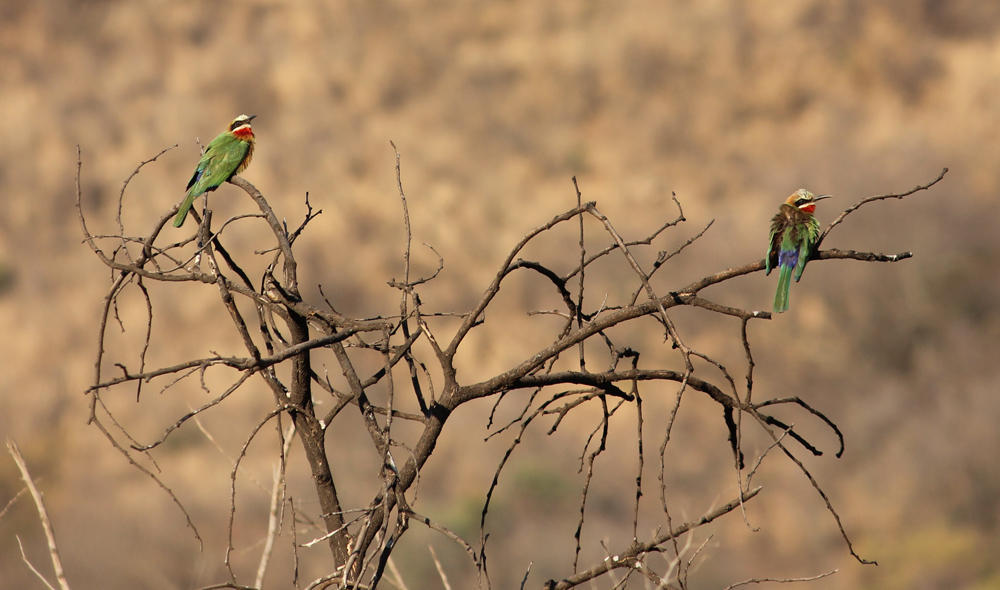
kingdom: Animalia
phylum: Chordata
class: Aves
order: Coraciiformes
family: Meropidae
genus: Merops
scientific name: Merops bullockoides
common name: White-fronted bee-eater
